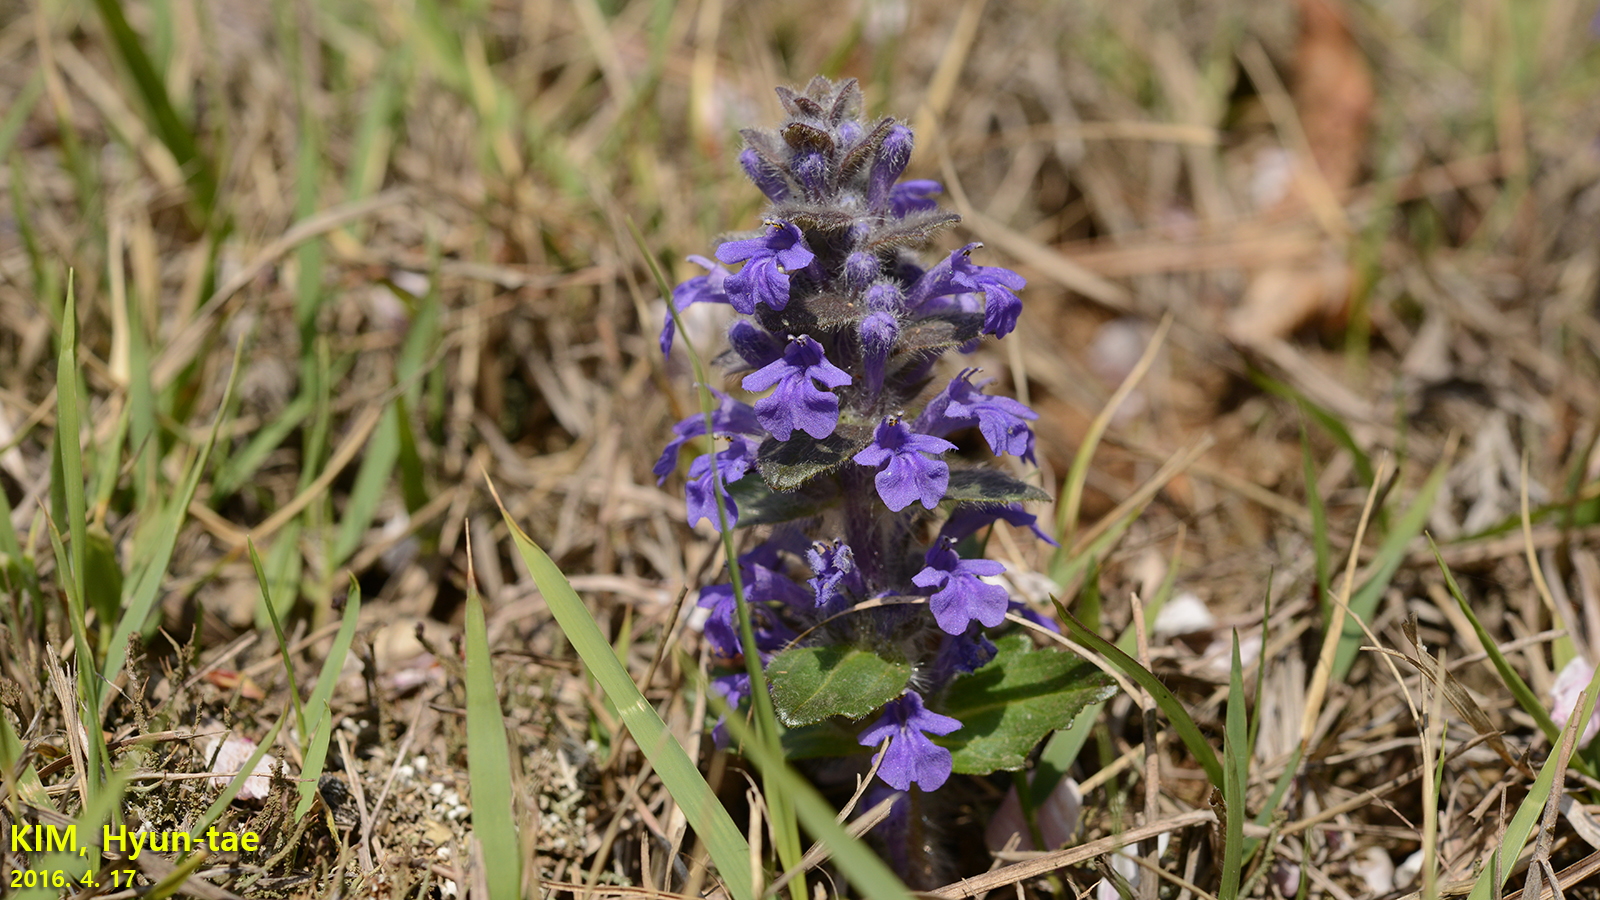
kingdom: Plantae
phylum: Tracheophyta
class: Magnoliopsida
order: Lamiales
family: Lamiaceae
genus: Ajuga
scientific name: Ajuga multiflora
